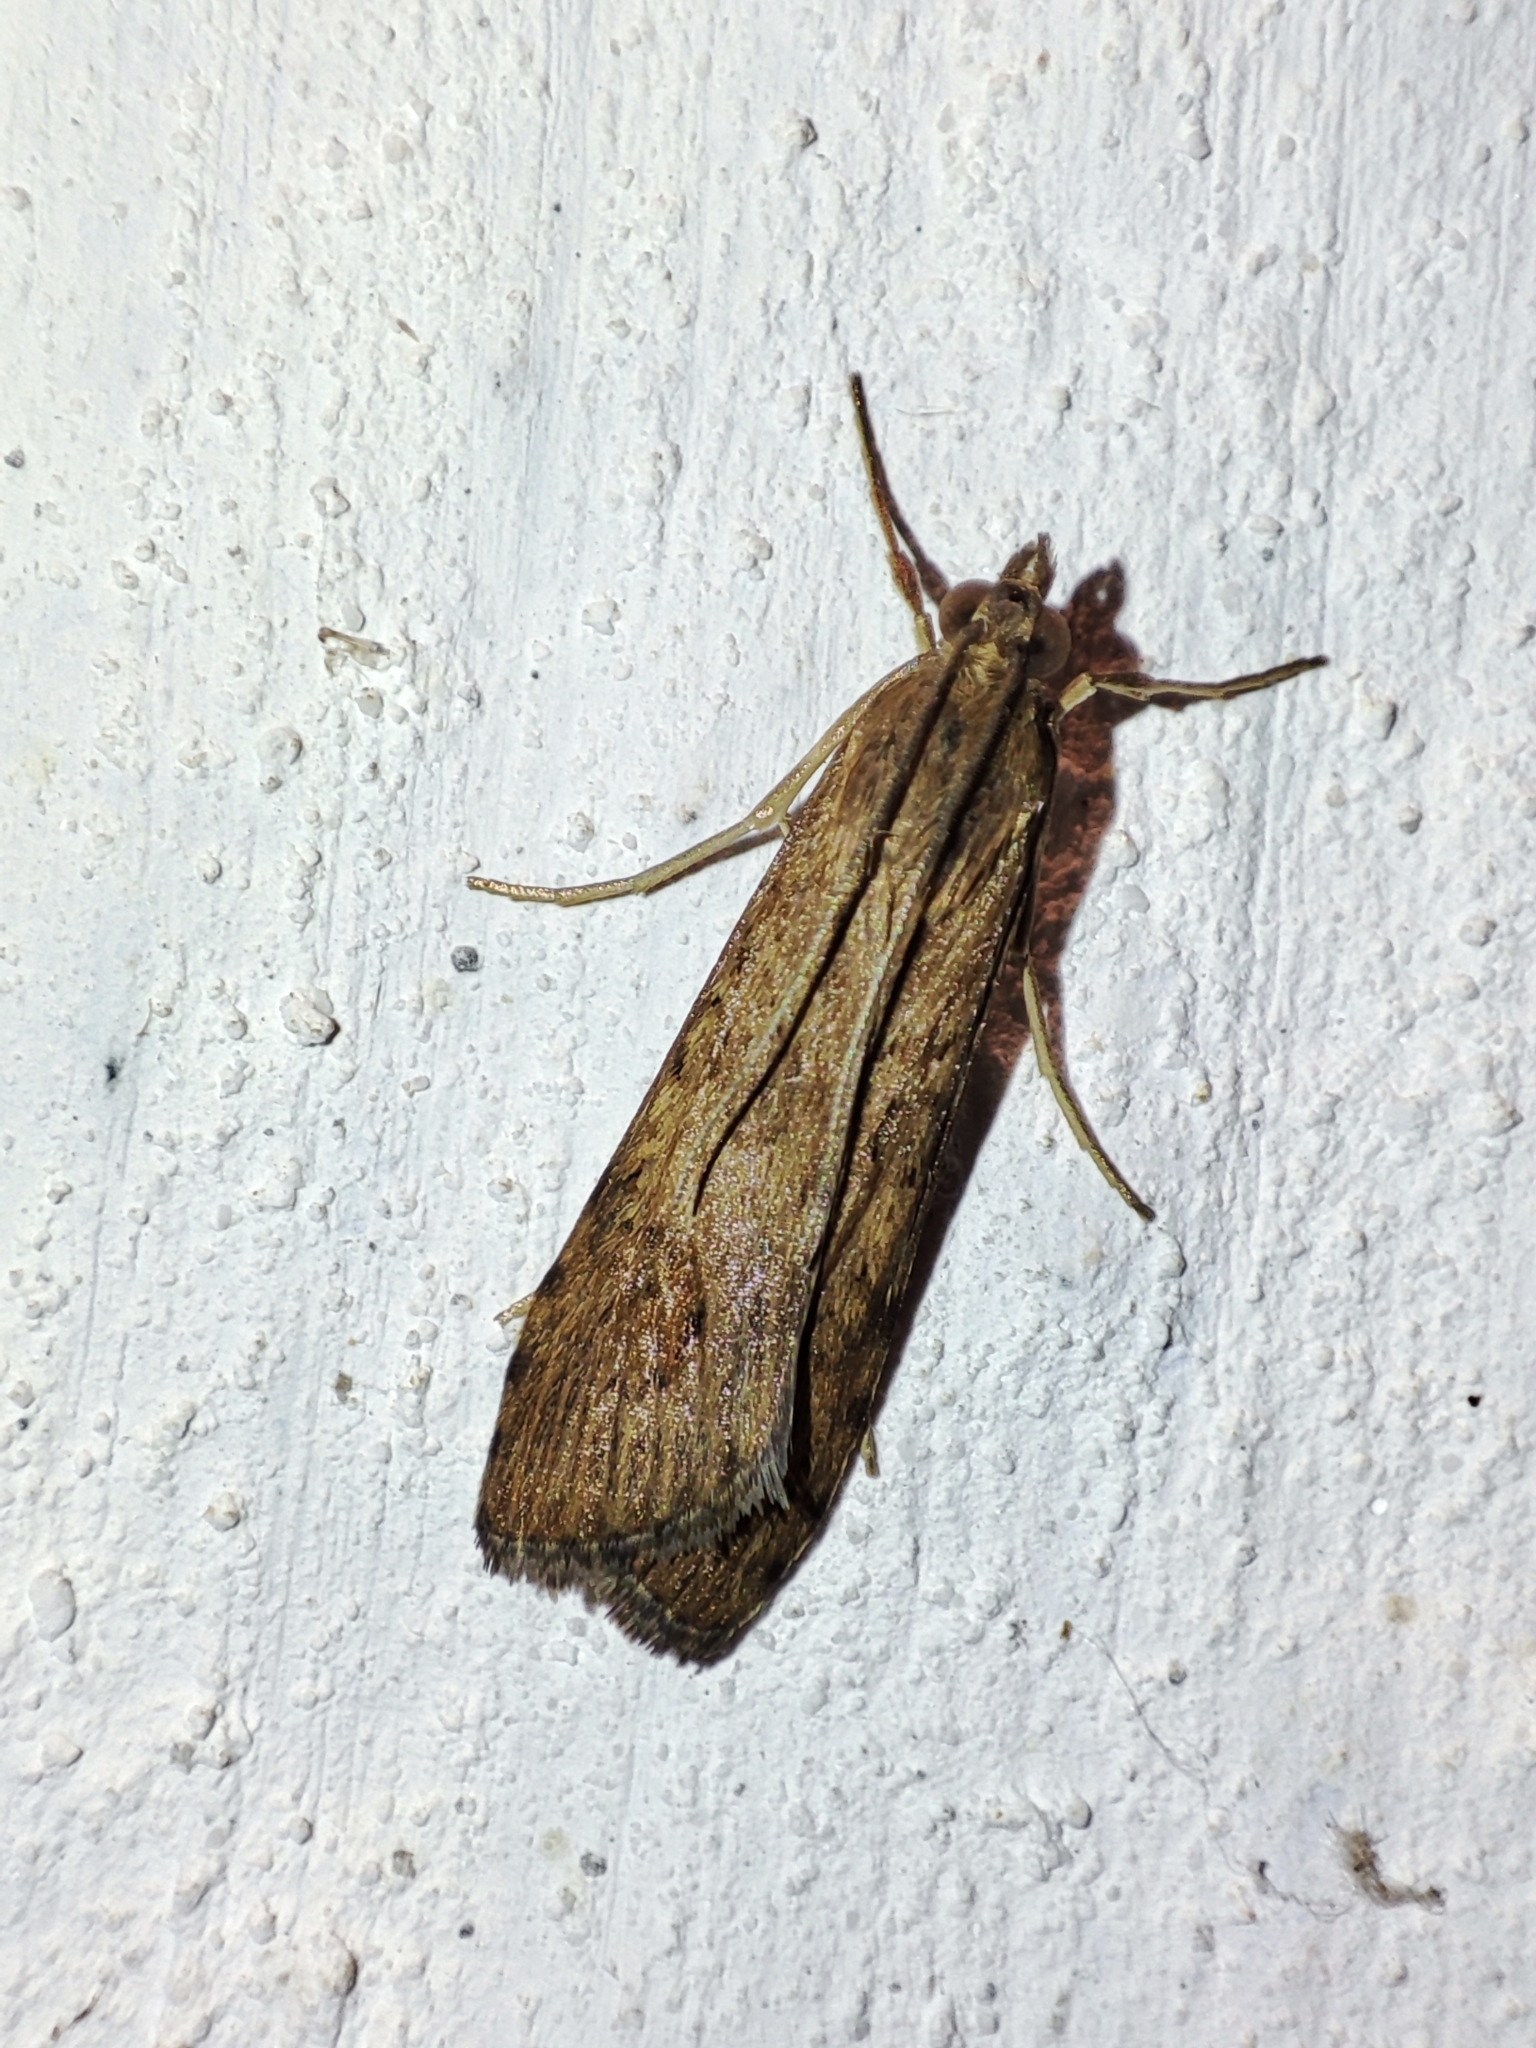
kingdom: Animalia
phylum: Arthropoda
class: Insecta
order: Lepidoptera
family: Crambidae
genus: Nomophila
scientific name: Nomophila noctuella
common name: Rush veneer
